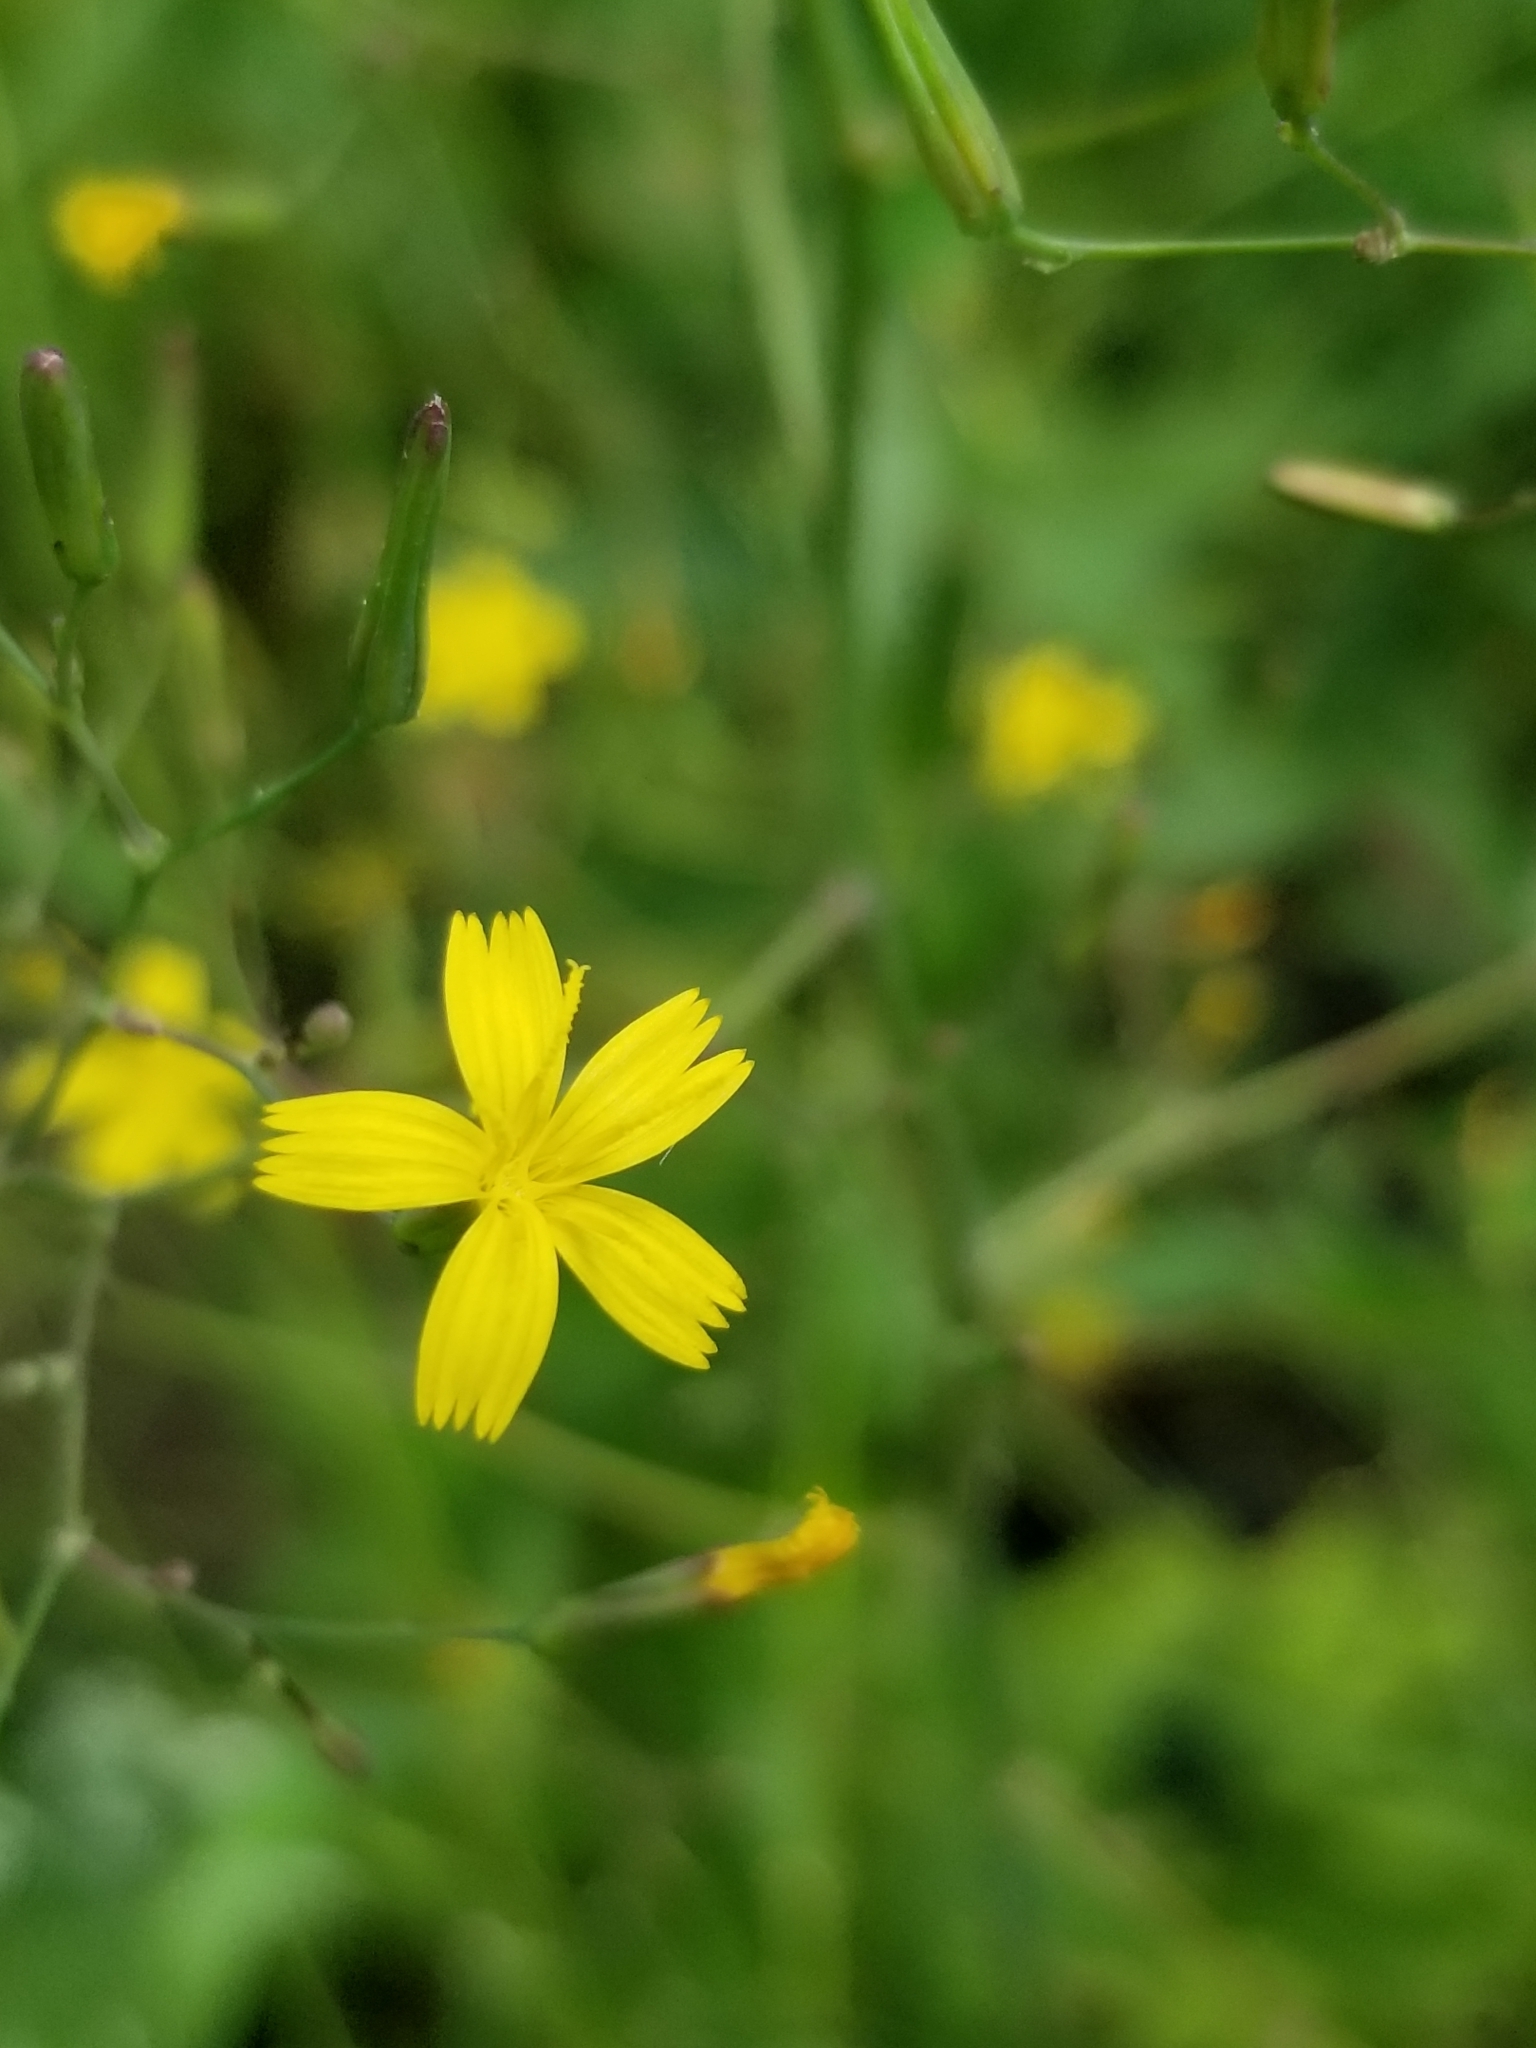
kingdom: Plantae
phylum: Tracheophyta
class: Magnoliopsida
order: Asterales
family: Asteraceae
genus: Mycelis
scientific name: Mycelis muralis
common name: Wall lettuce
